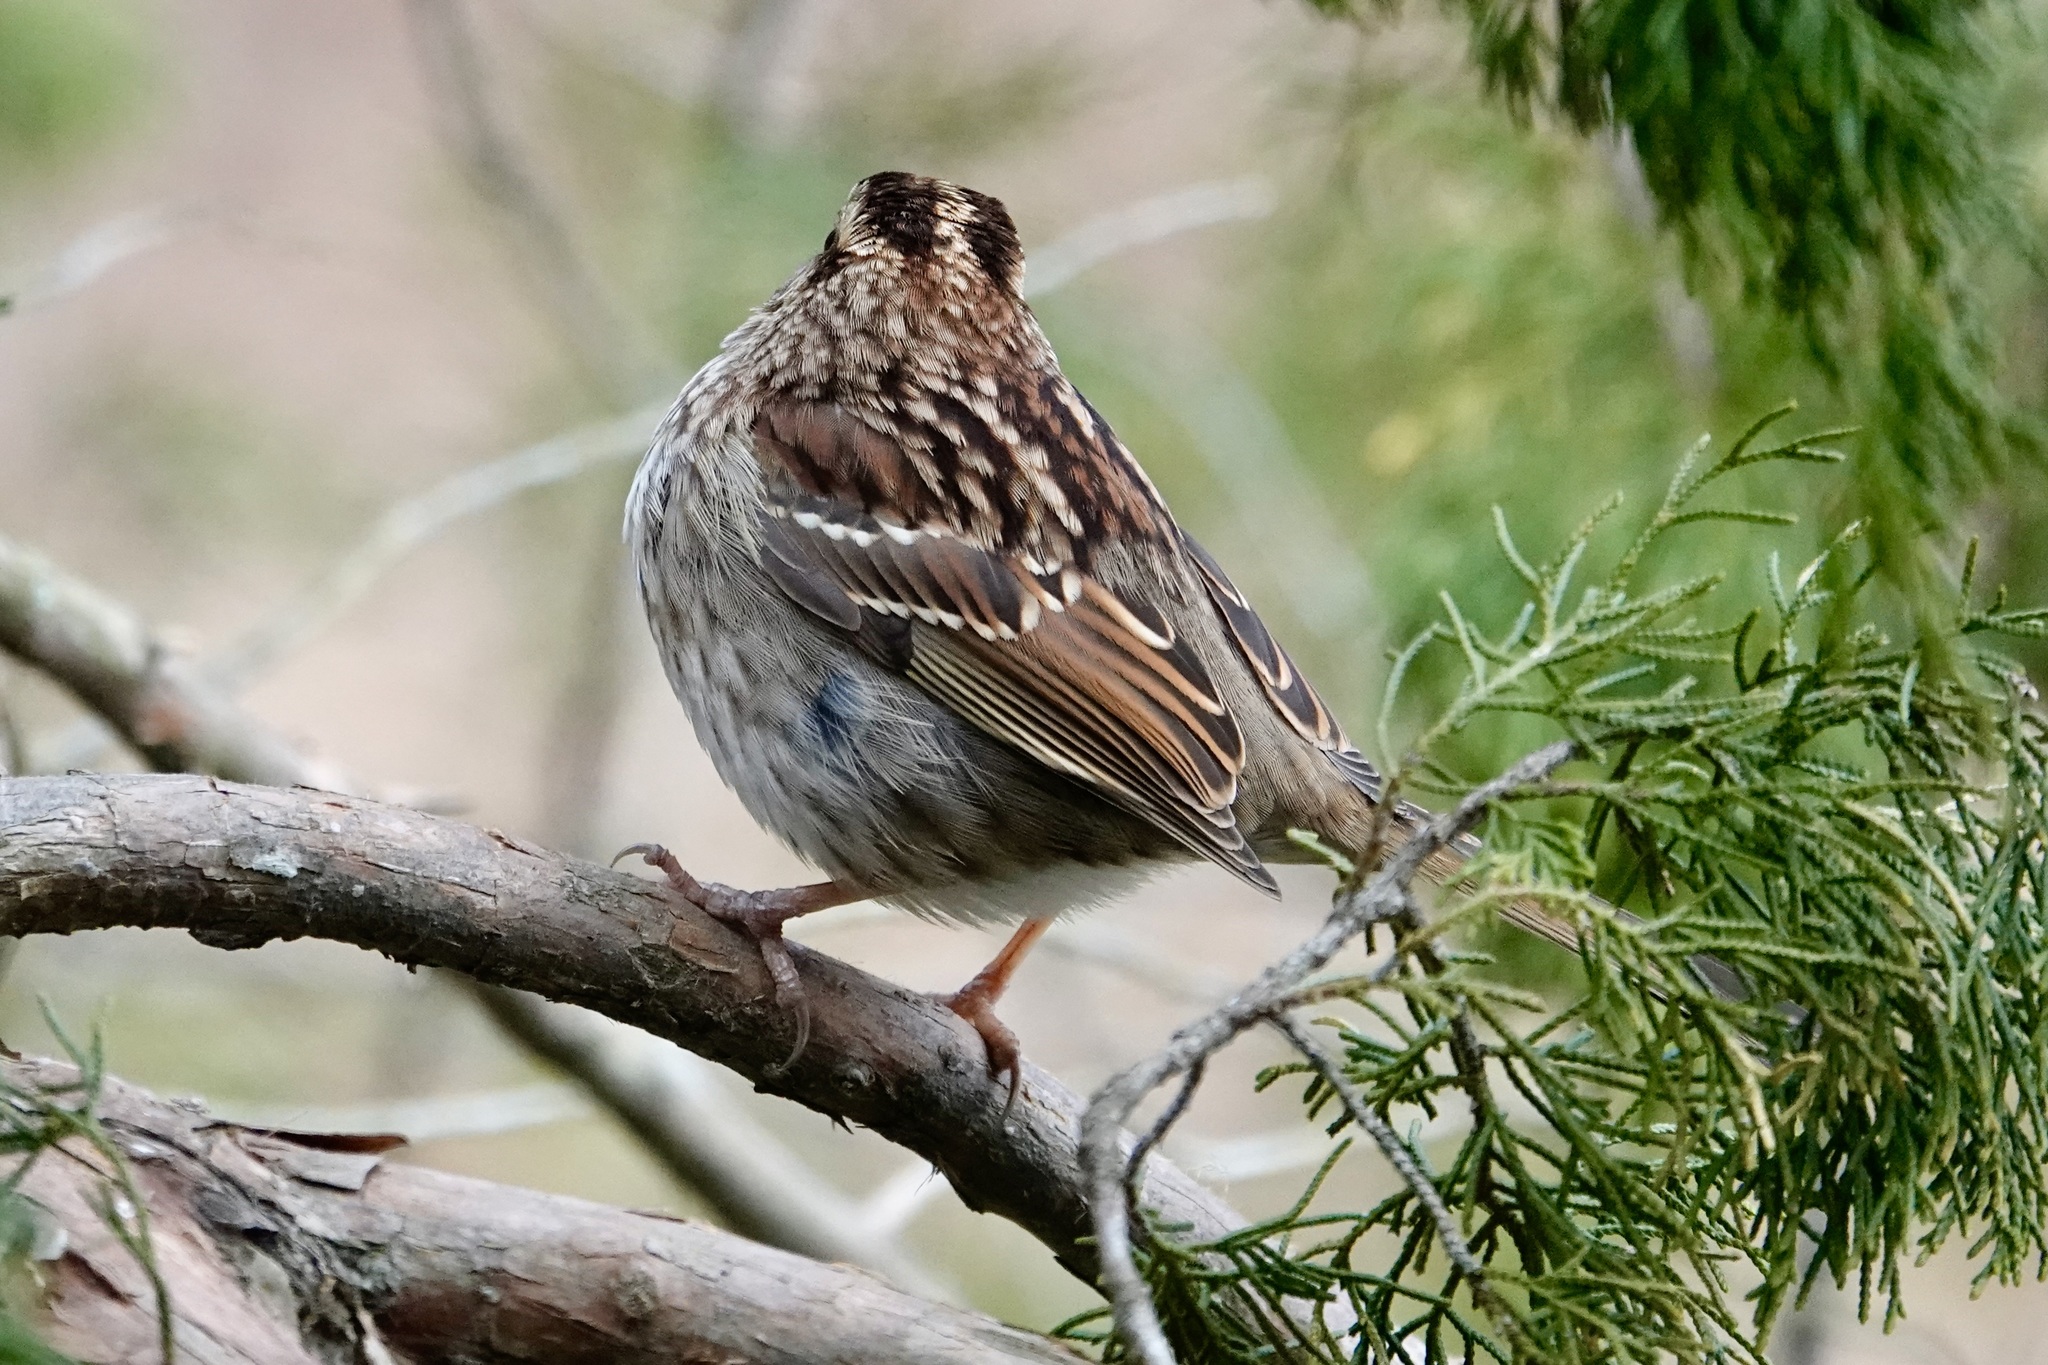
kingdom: Animalia
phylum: Chordata
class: Aves
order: Passeriformes
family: Passerellidae
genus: Zonotrichia
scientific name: Zonotrichia albicollis
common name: White-throated sparrow
